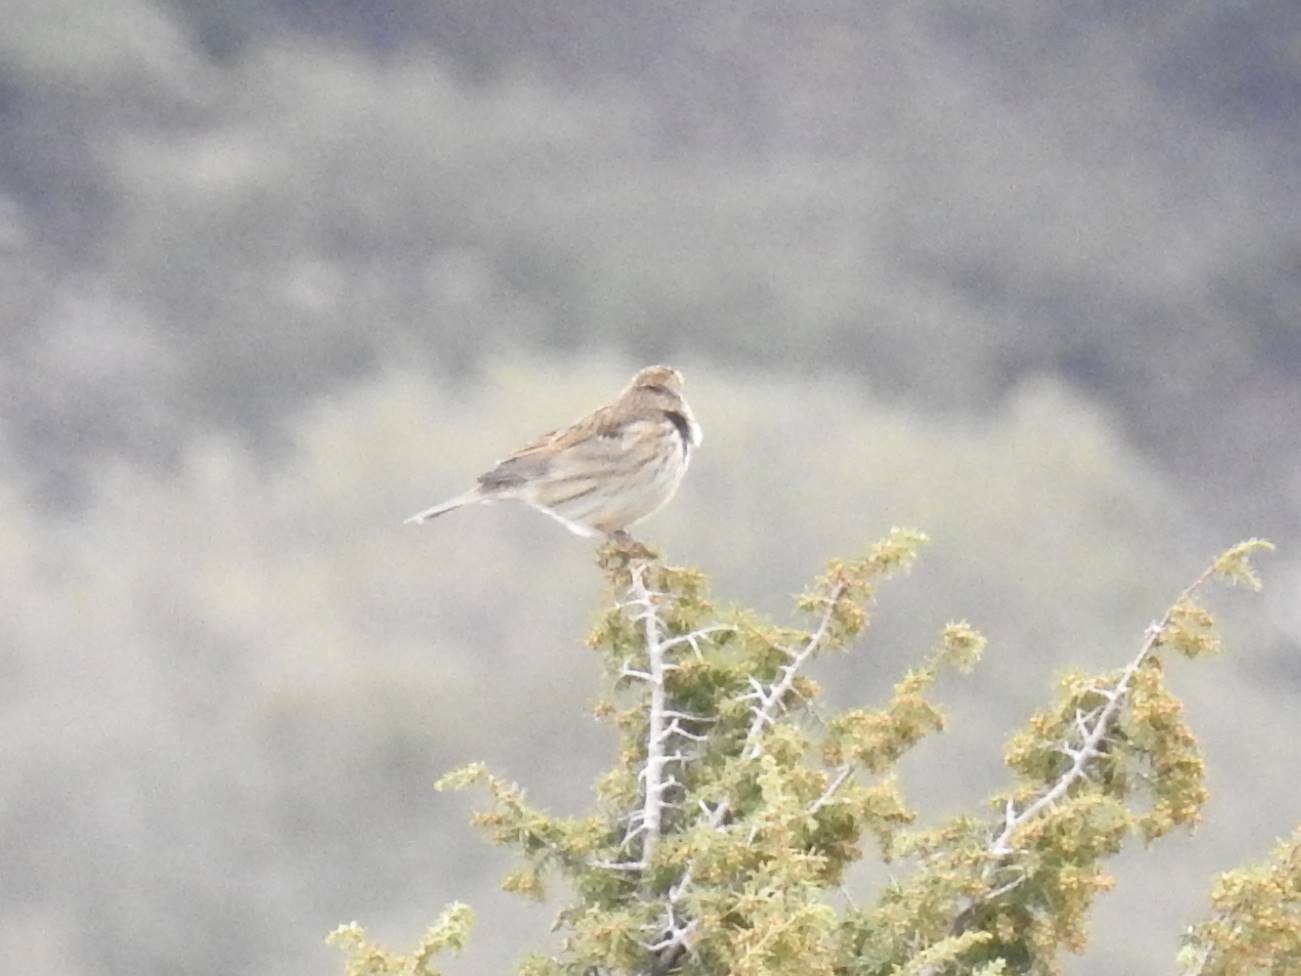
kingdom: Animalia
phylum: Chordata
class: Aves
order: Passeriformes
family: Emberizidae
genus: Emberiza
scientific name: Emberiza calandra
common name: Corn bunting
